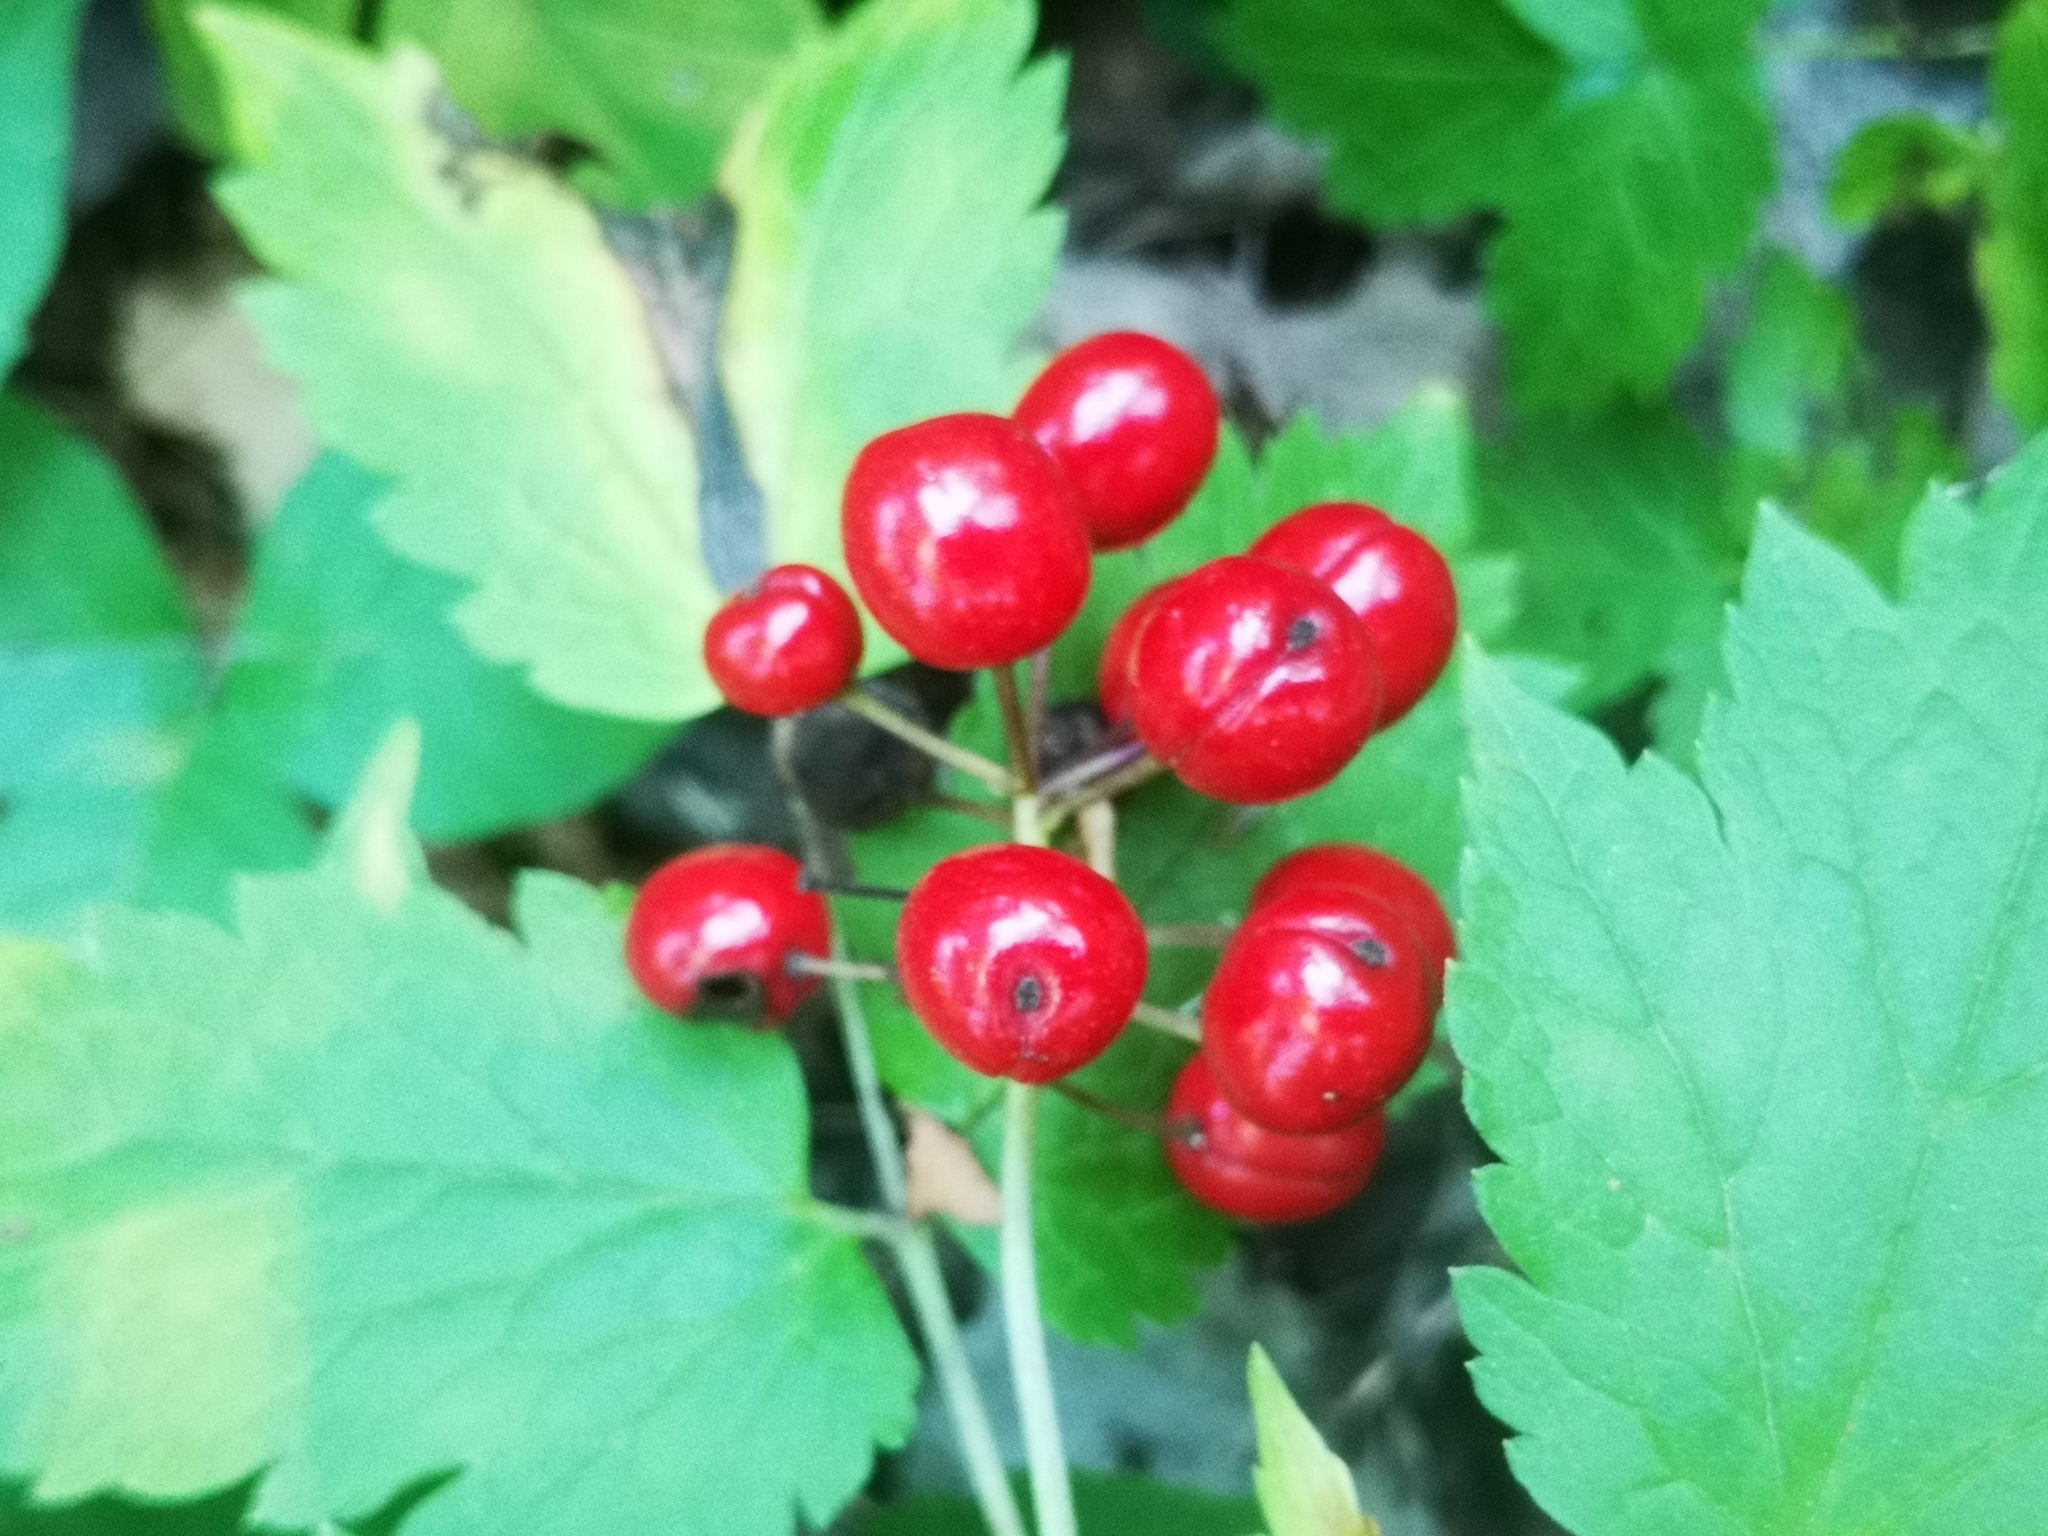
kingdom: Plantae
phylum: Tracheophyta
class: Magnoliopsida
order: Ranunculales
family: Ranunculaceae
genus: Actaea
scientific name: Actaea rubra
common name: Red baneberry
